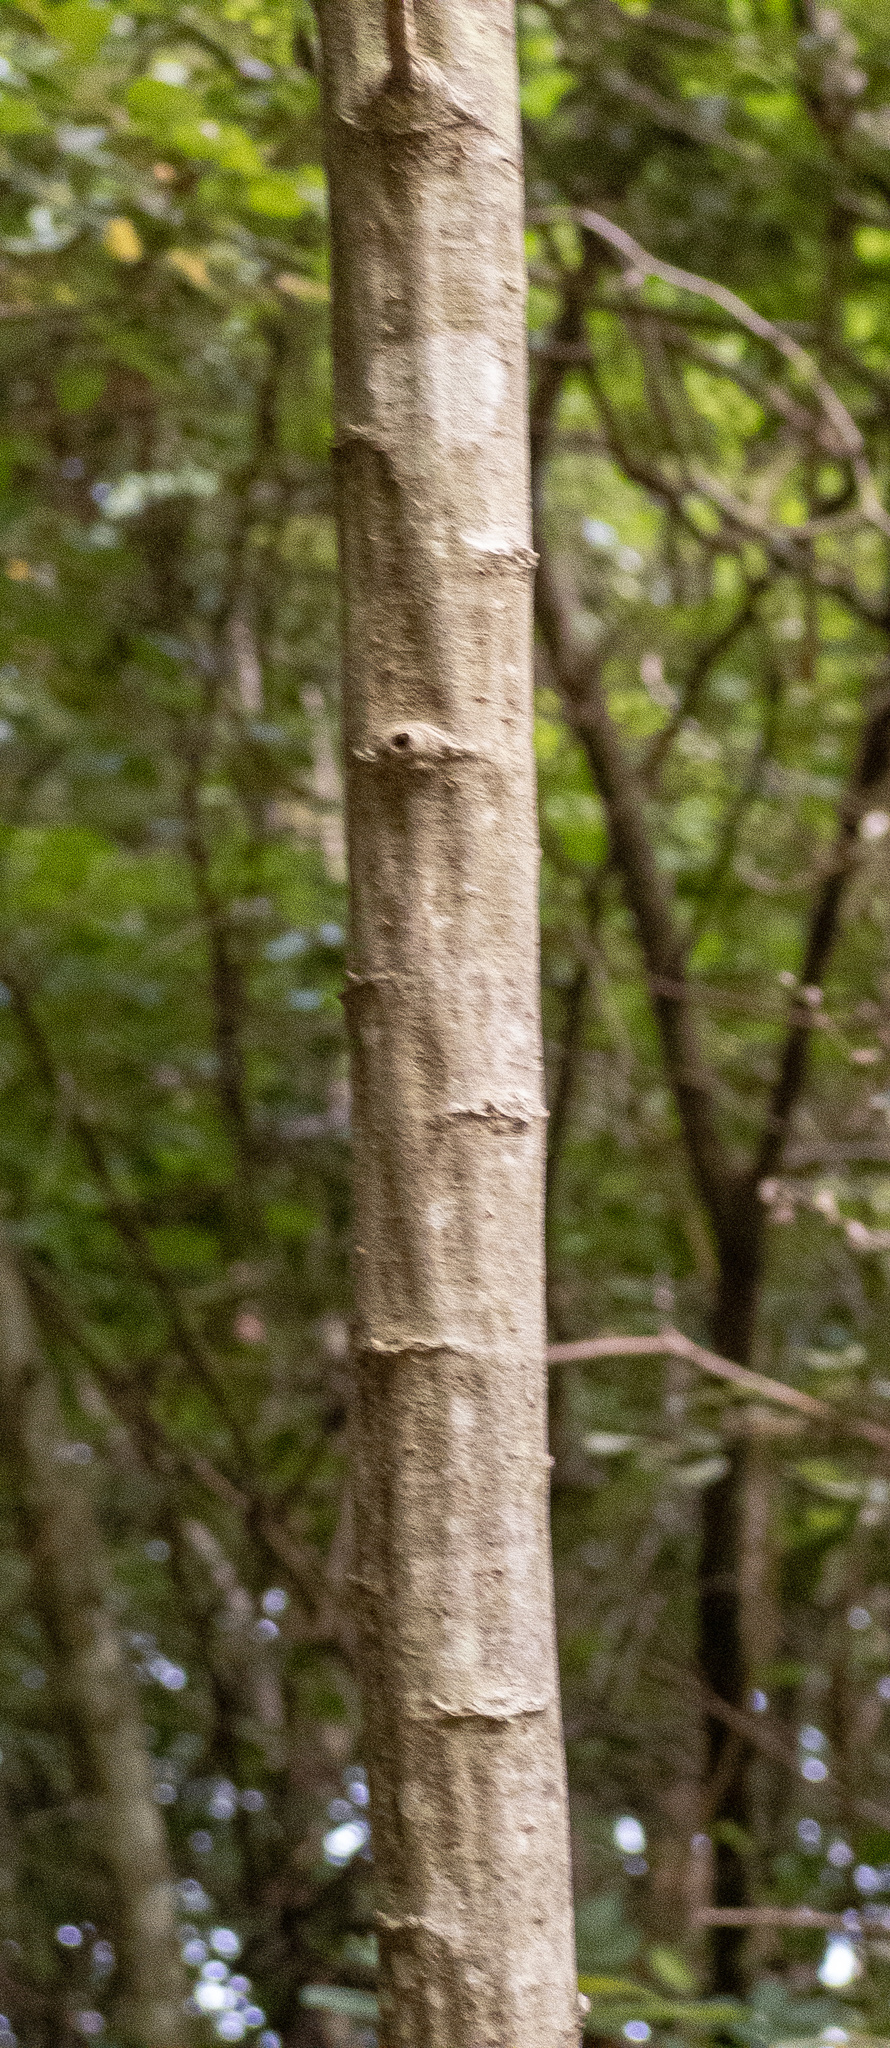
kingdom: Plantae
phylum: Tracheophyta
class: Magnoliopsida
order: Malpighiales
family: Salicaceae
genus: Salix
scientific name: Salix atrocinerea
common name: Rusty willow
